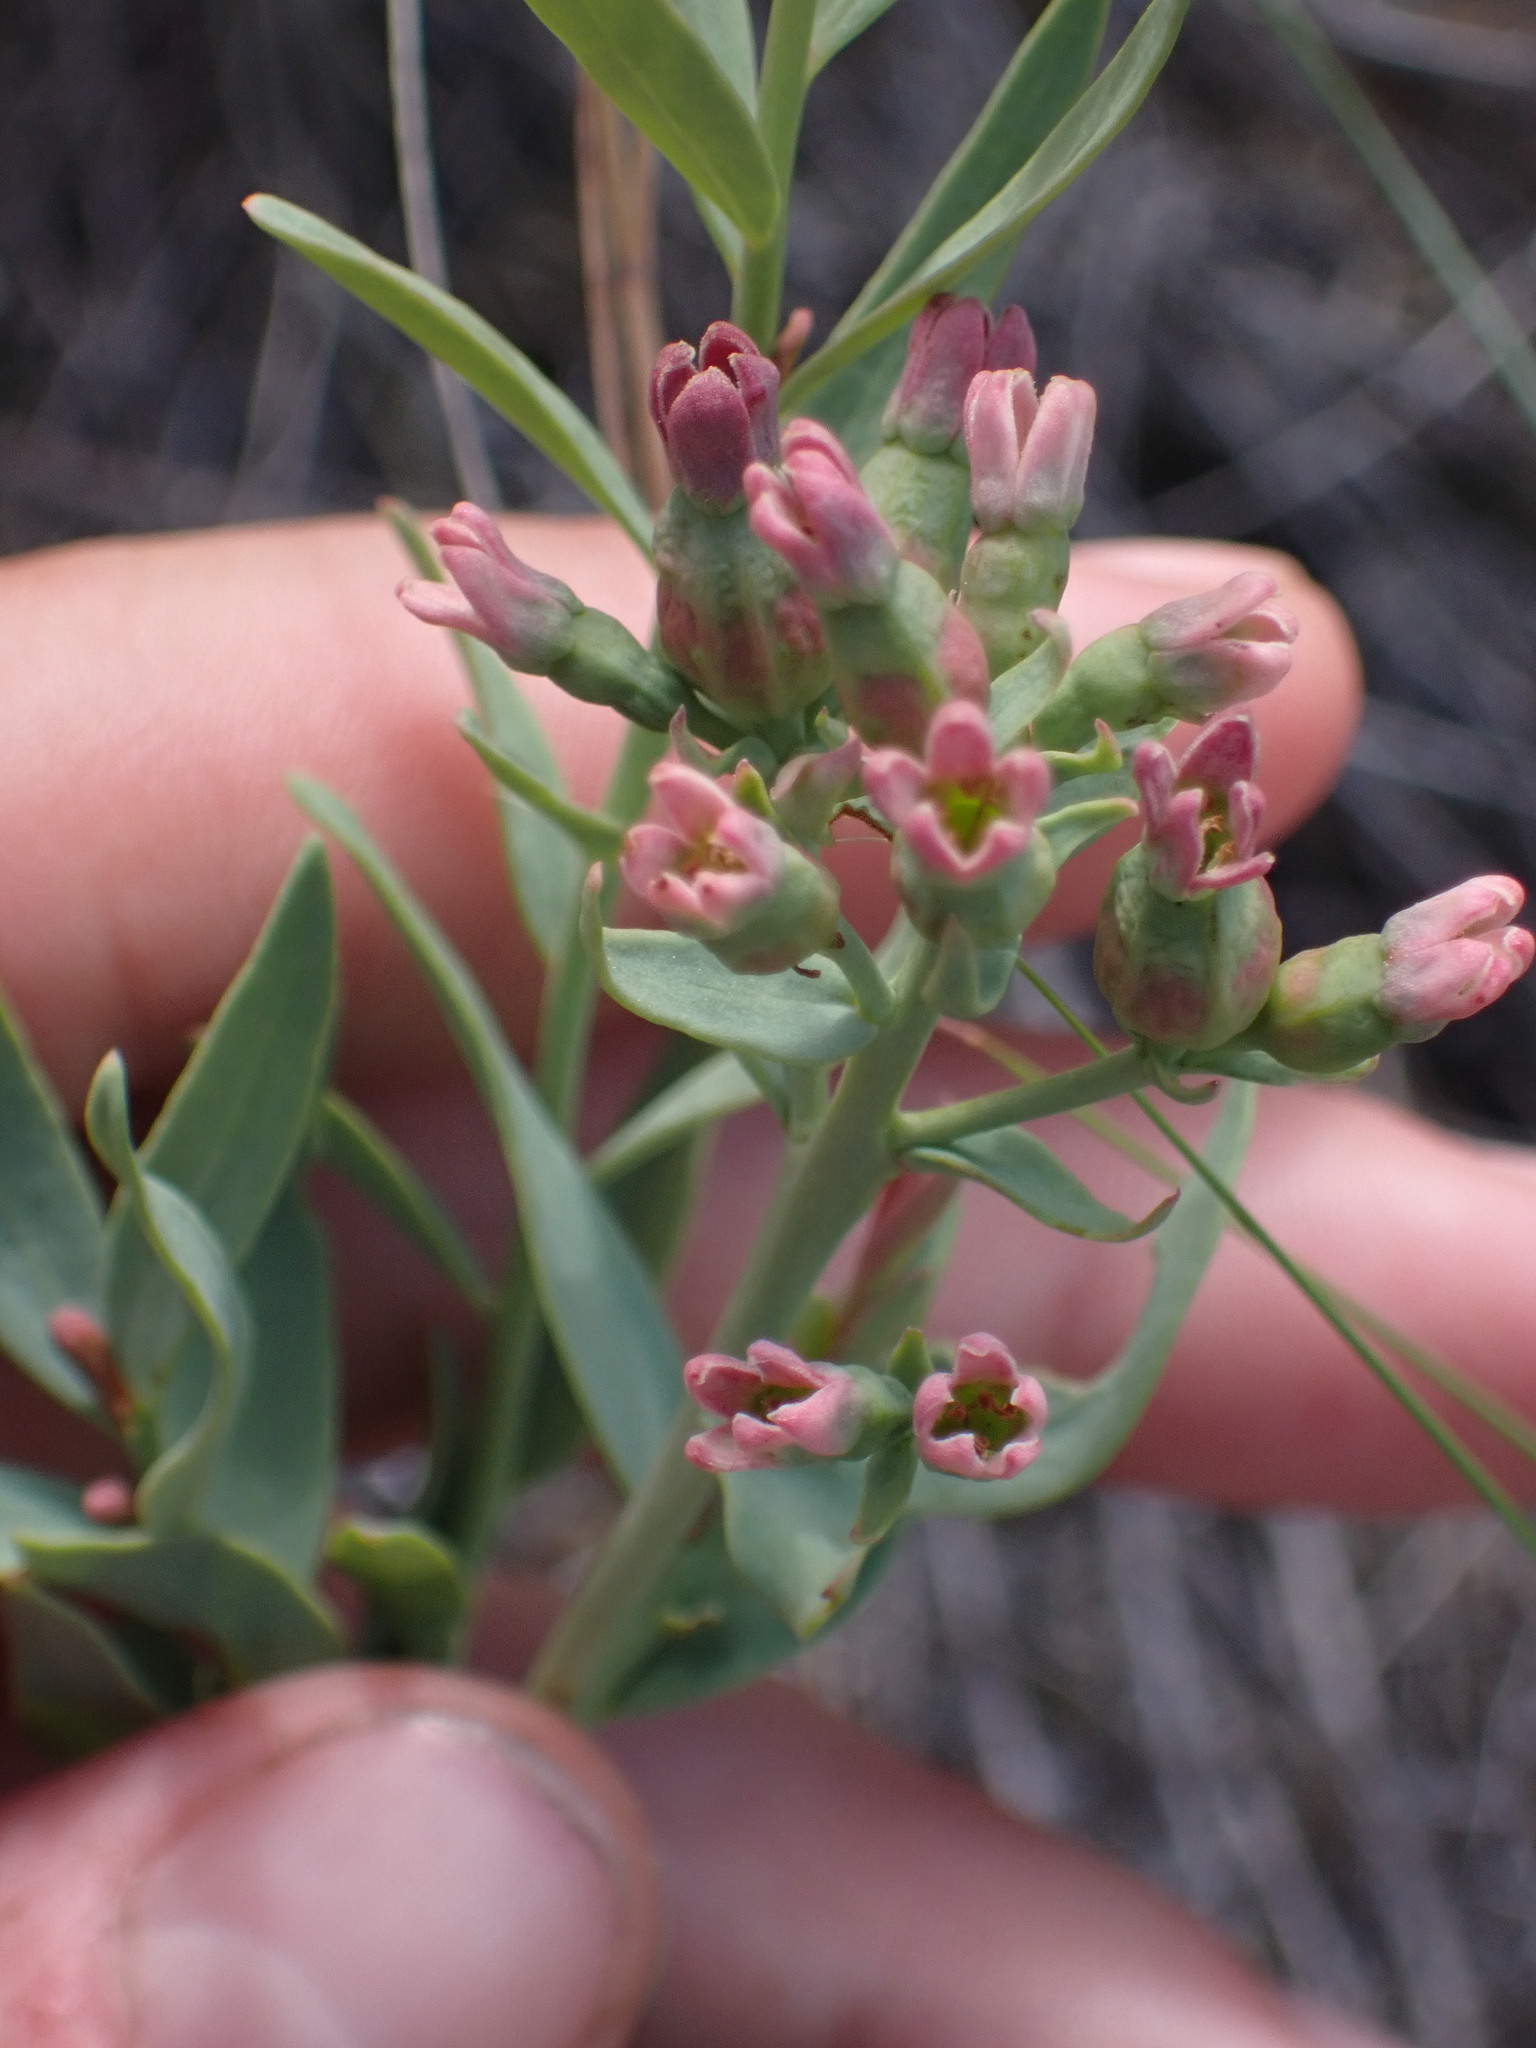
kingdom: Plantae
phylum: Tracheophyta
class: Magnoliopsida
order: Santalales
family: Comandraceae
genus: Comandra
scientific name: Comandra umbellata
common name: Bastard toadflax
